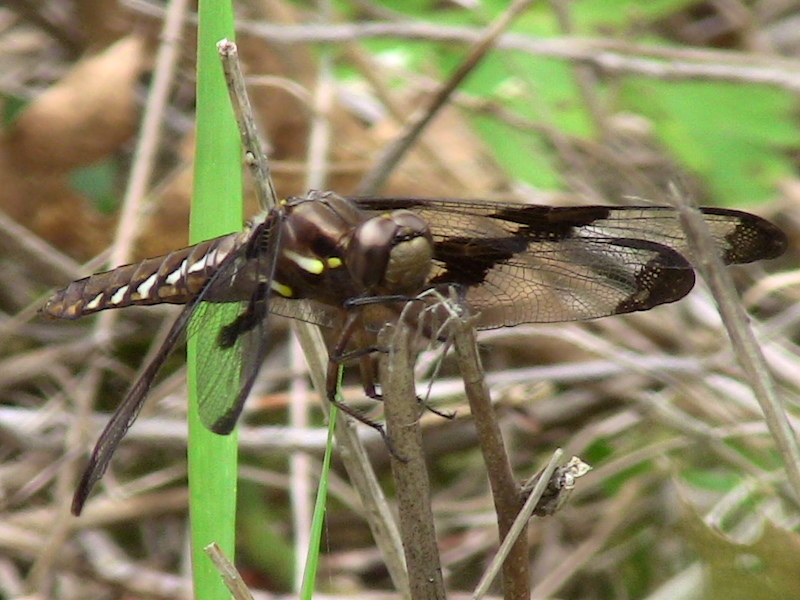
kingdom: Animalia
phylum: Arthropoda
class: Insecta
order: Odonata
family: Libellulidae
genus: Plathemis
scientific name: Plathemis lydia
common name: Common whitetail
